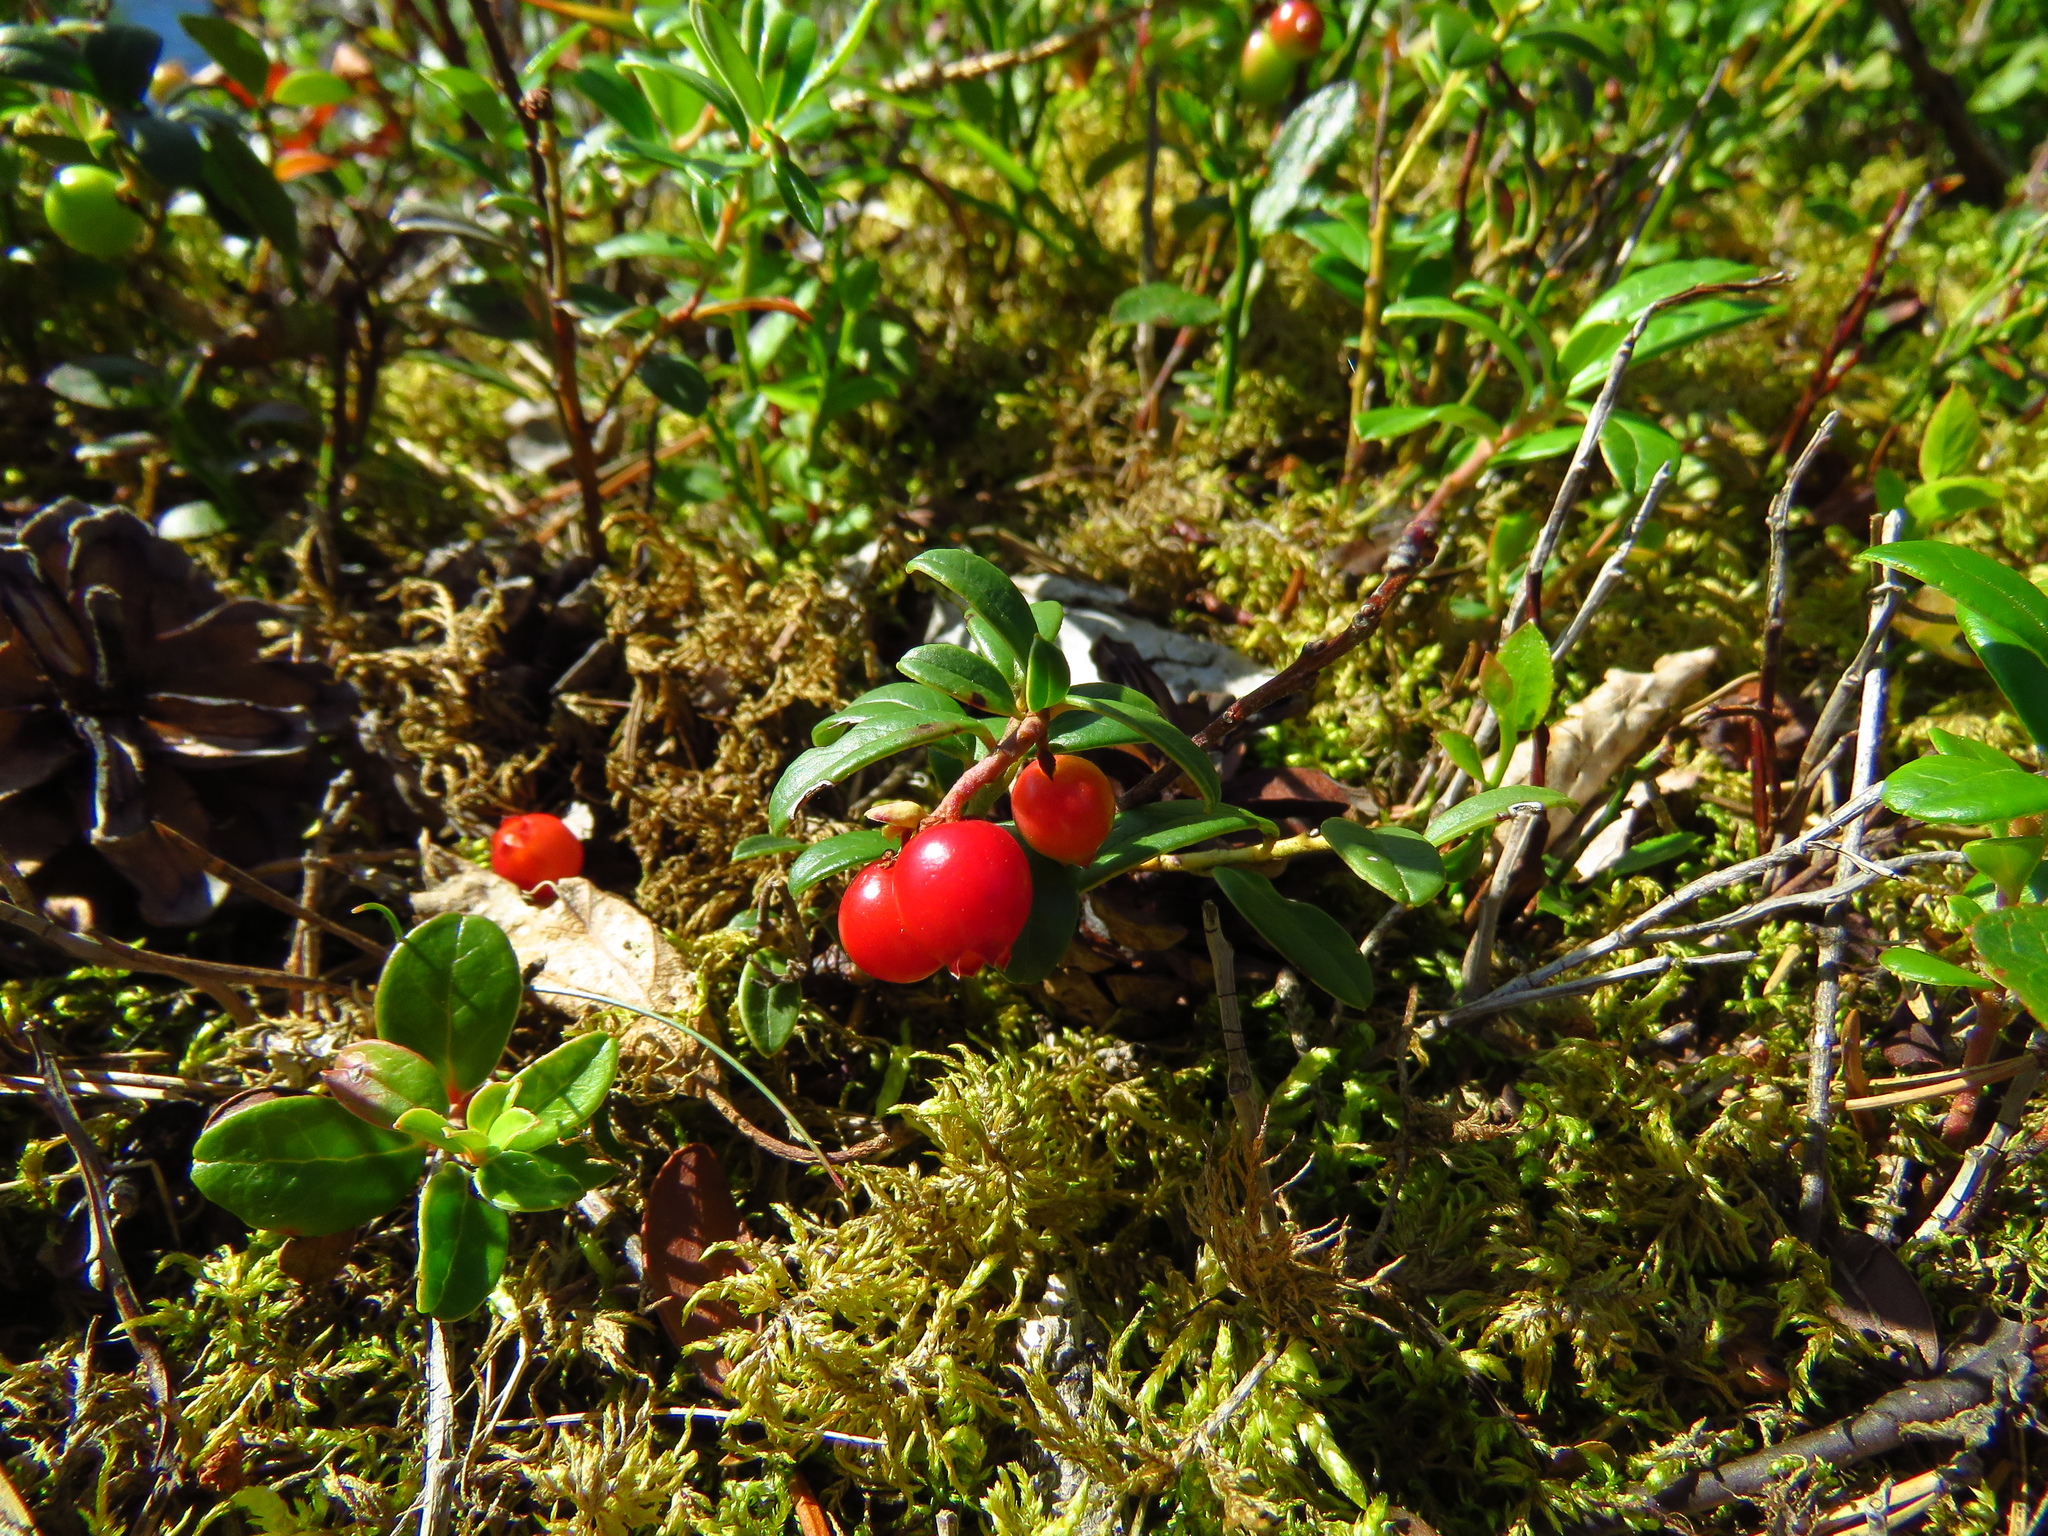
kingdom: Plantae
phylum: Tracheophyta
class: Magnoliopsida
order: Ericales
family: Ericaceae
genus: Vaccinium
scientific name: Vaccinium vitis-idaea
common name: Cowberry
